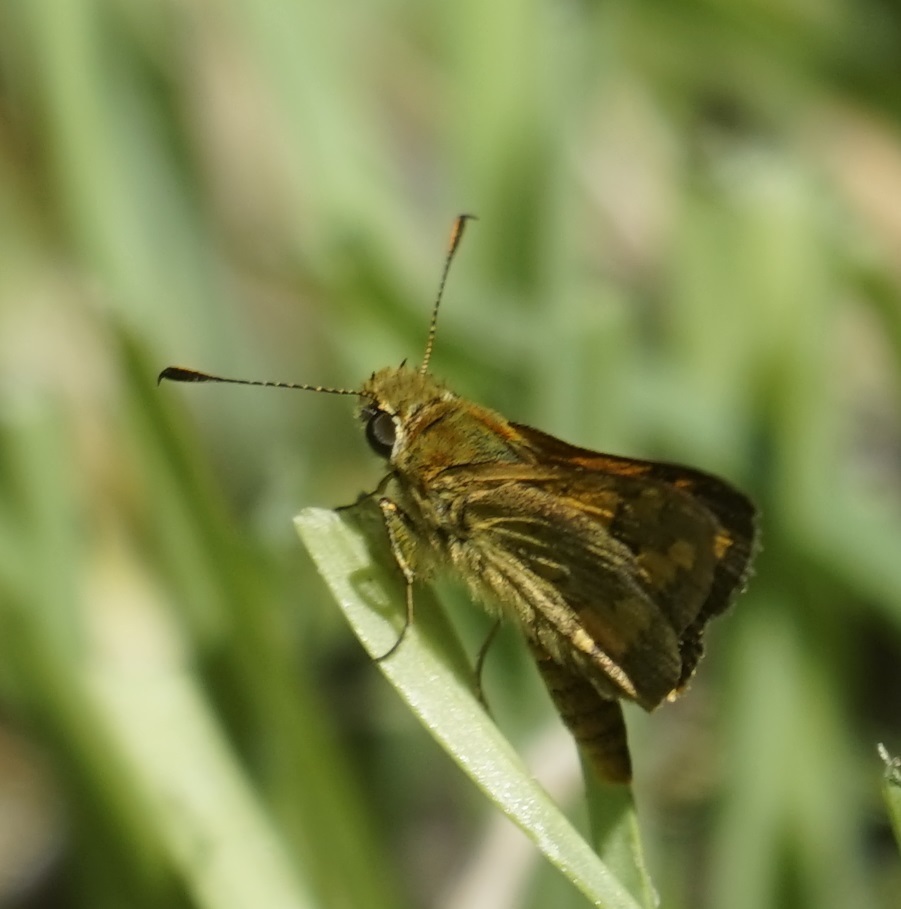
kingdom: Animalia
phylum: Arthropoda
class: Insecta
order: Lepidoptera
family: Hesperiidae
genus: Ocybadistes
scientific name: Ocybadistes walkeri
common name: Yellow-banded dart
